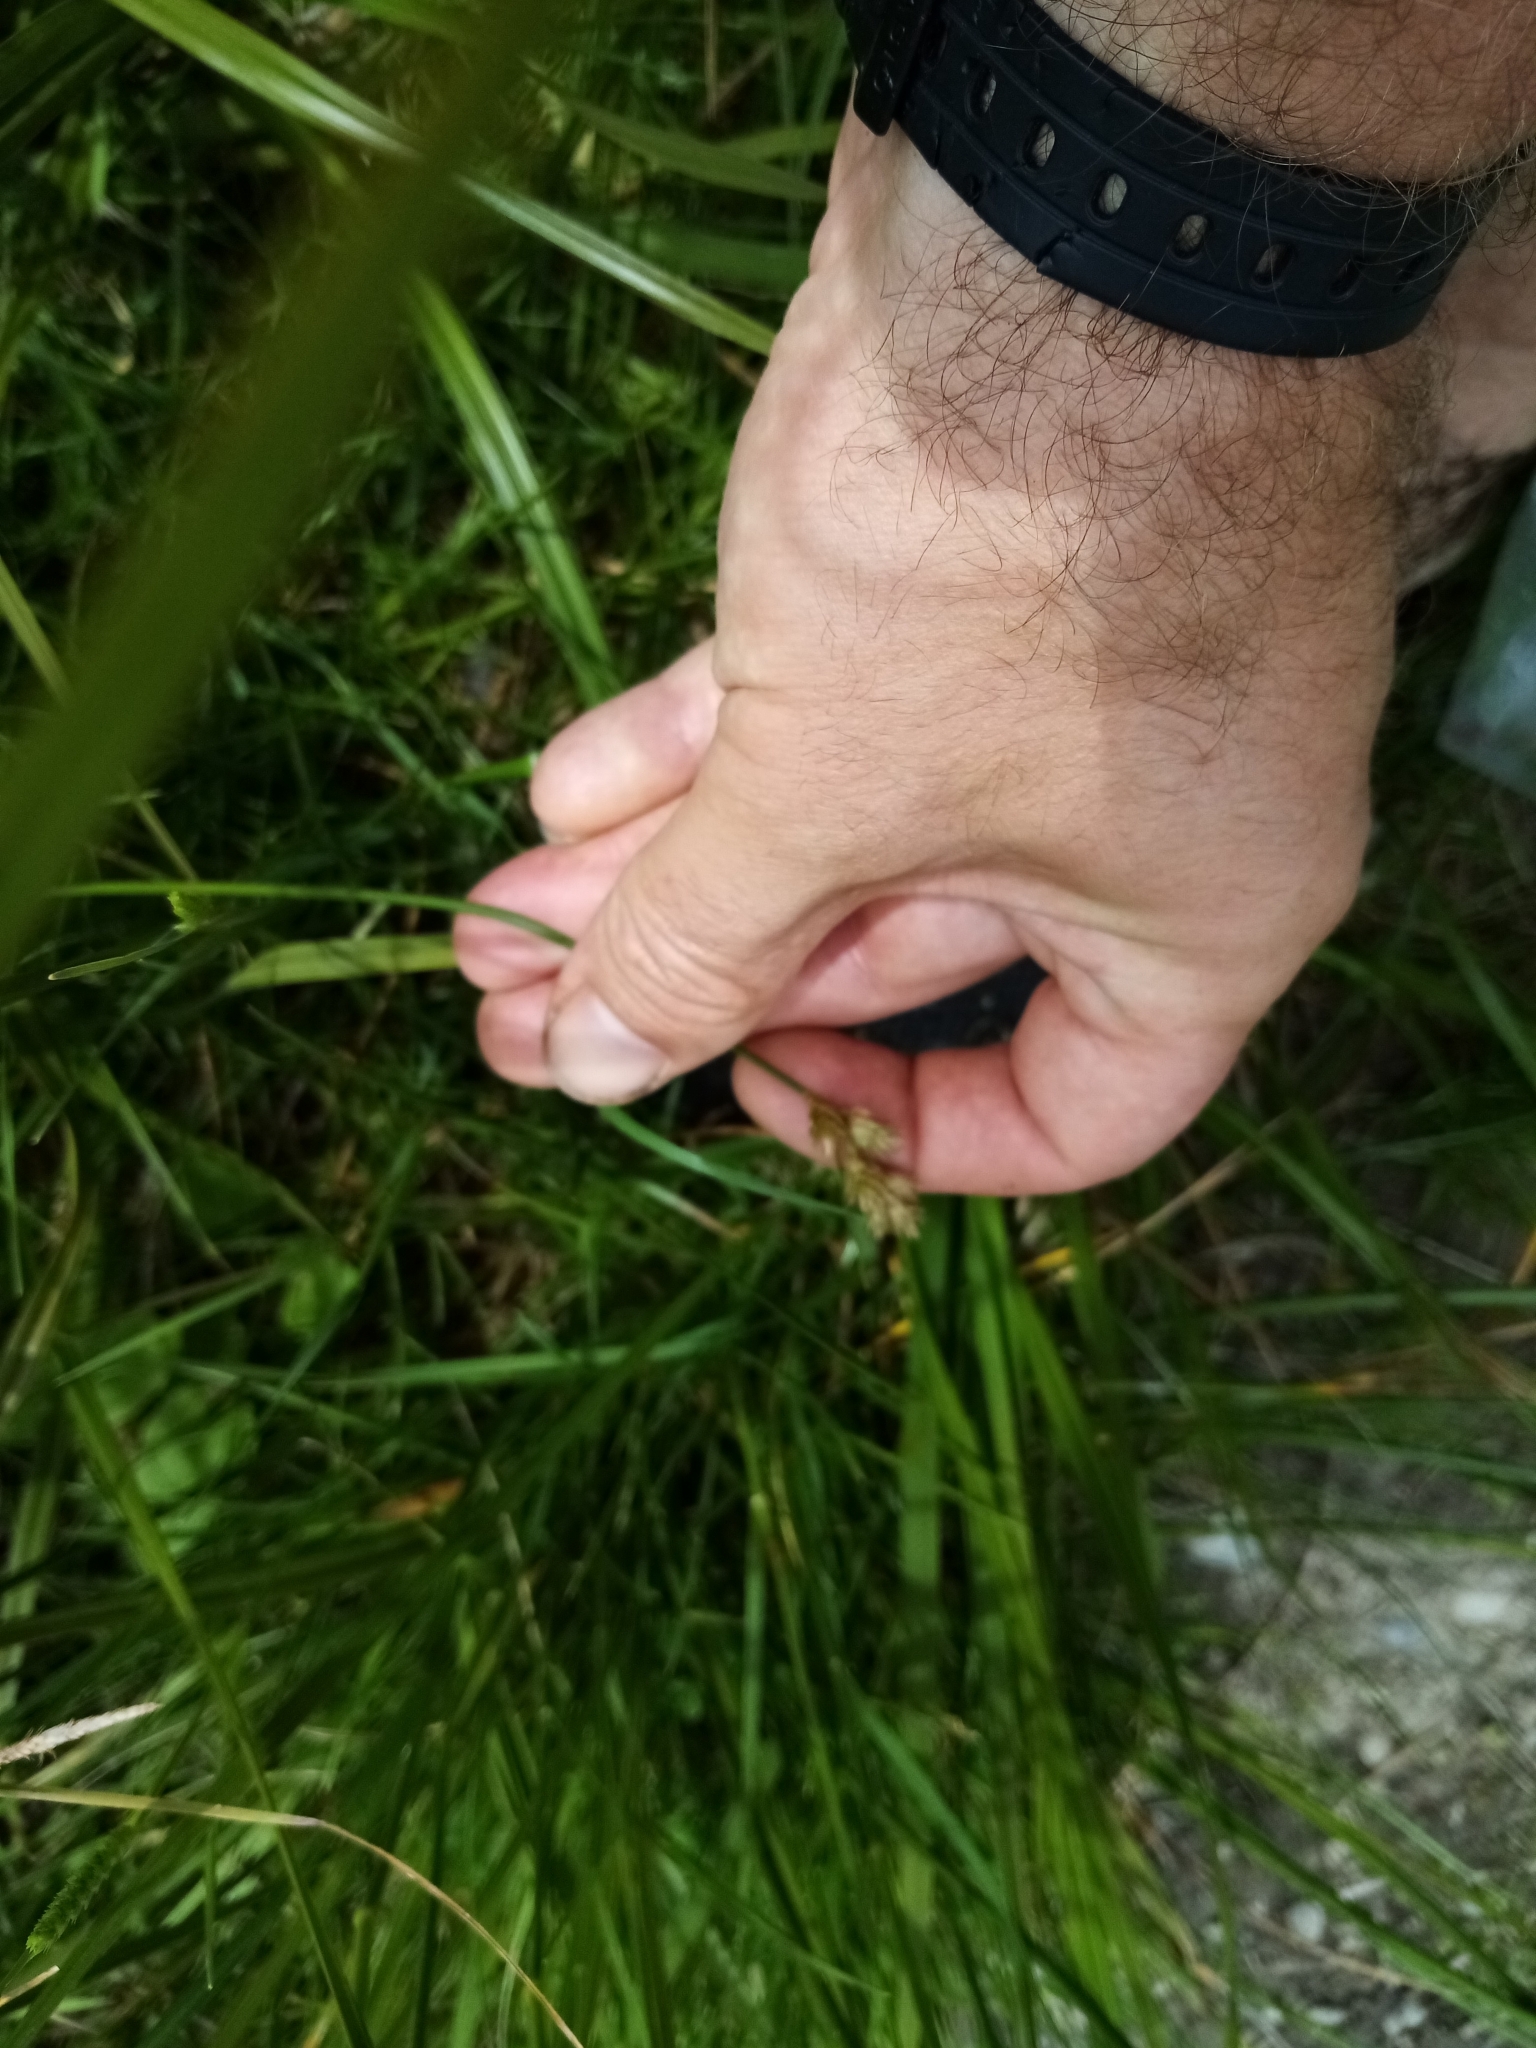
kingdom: Plantae
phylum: Tracheophyta
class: Liliopsida
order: Poales
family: Cyperaceae
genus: Carex
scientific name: Carex leporina
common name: Oval sedge
